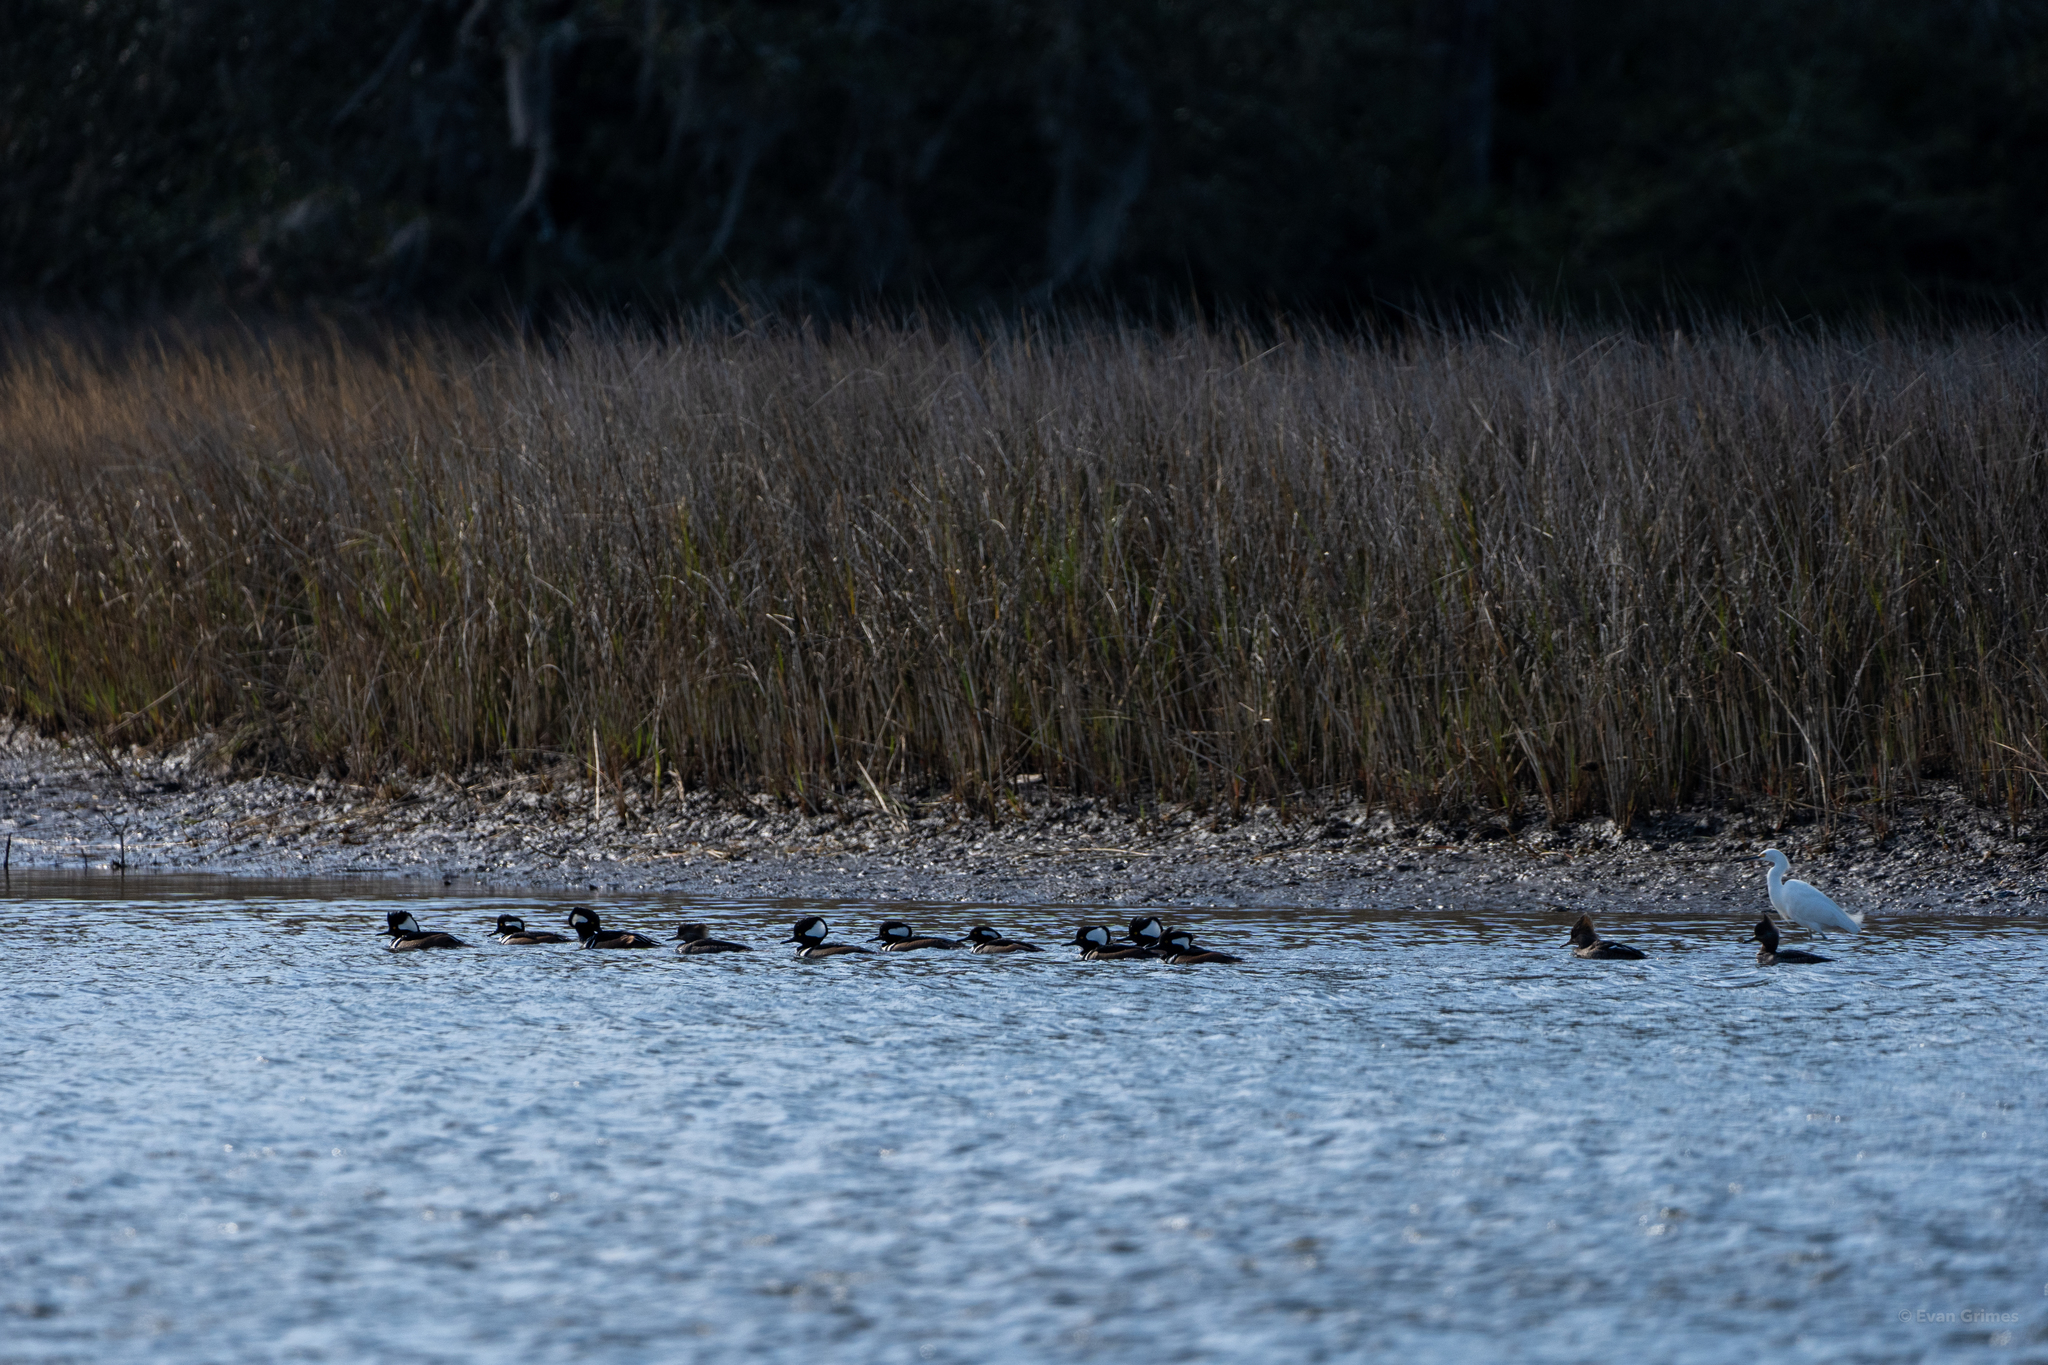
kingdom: Animalia
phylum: Chordata
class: Aves
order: Anseriformes
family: Anatidae
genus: Lophodytes
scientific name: Lophodytes cucullatus
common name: Hooded merganser
